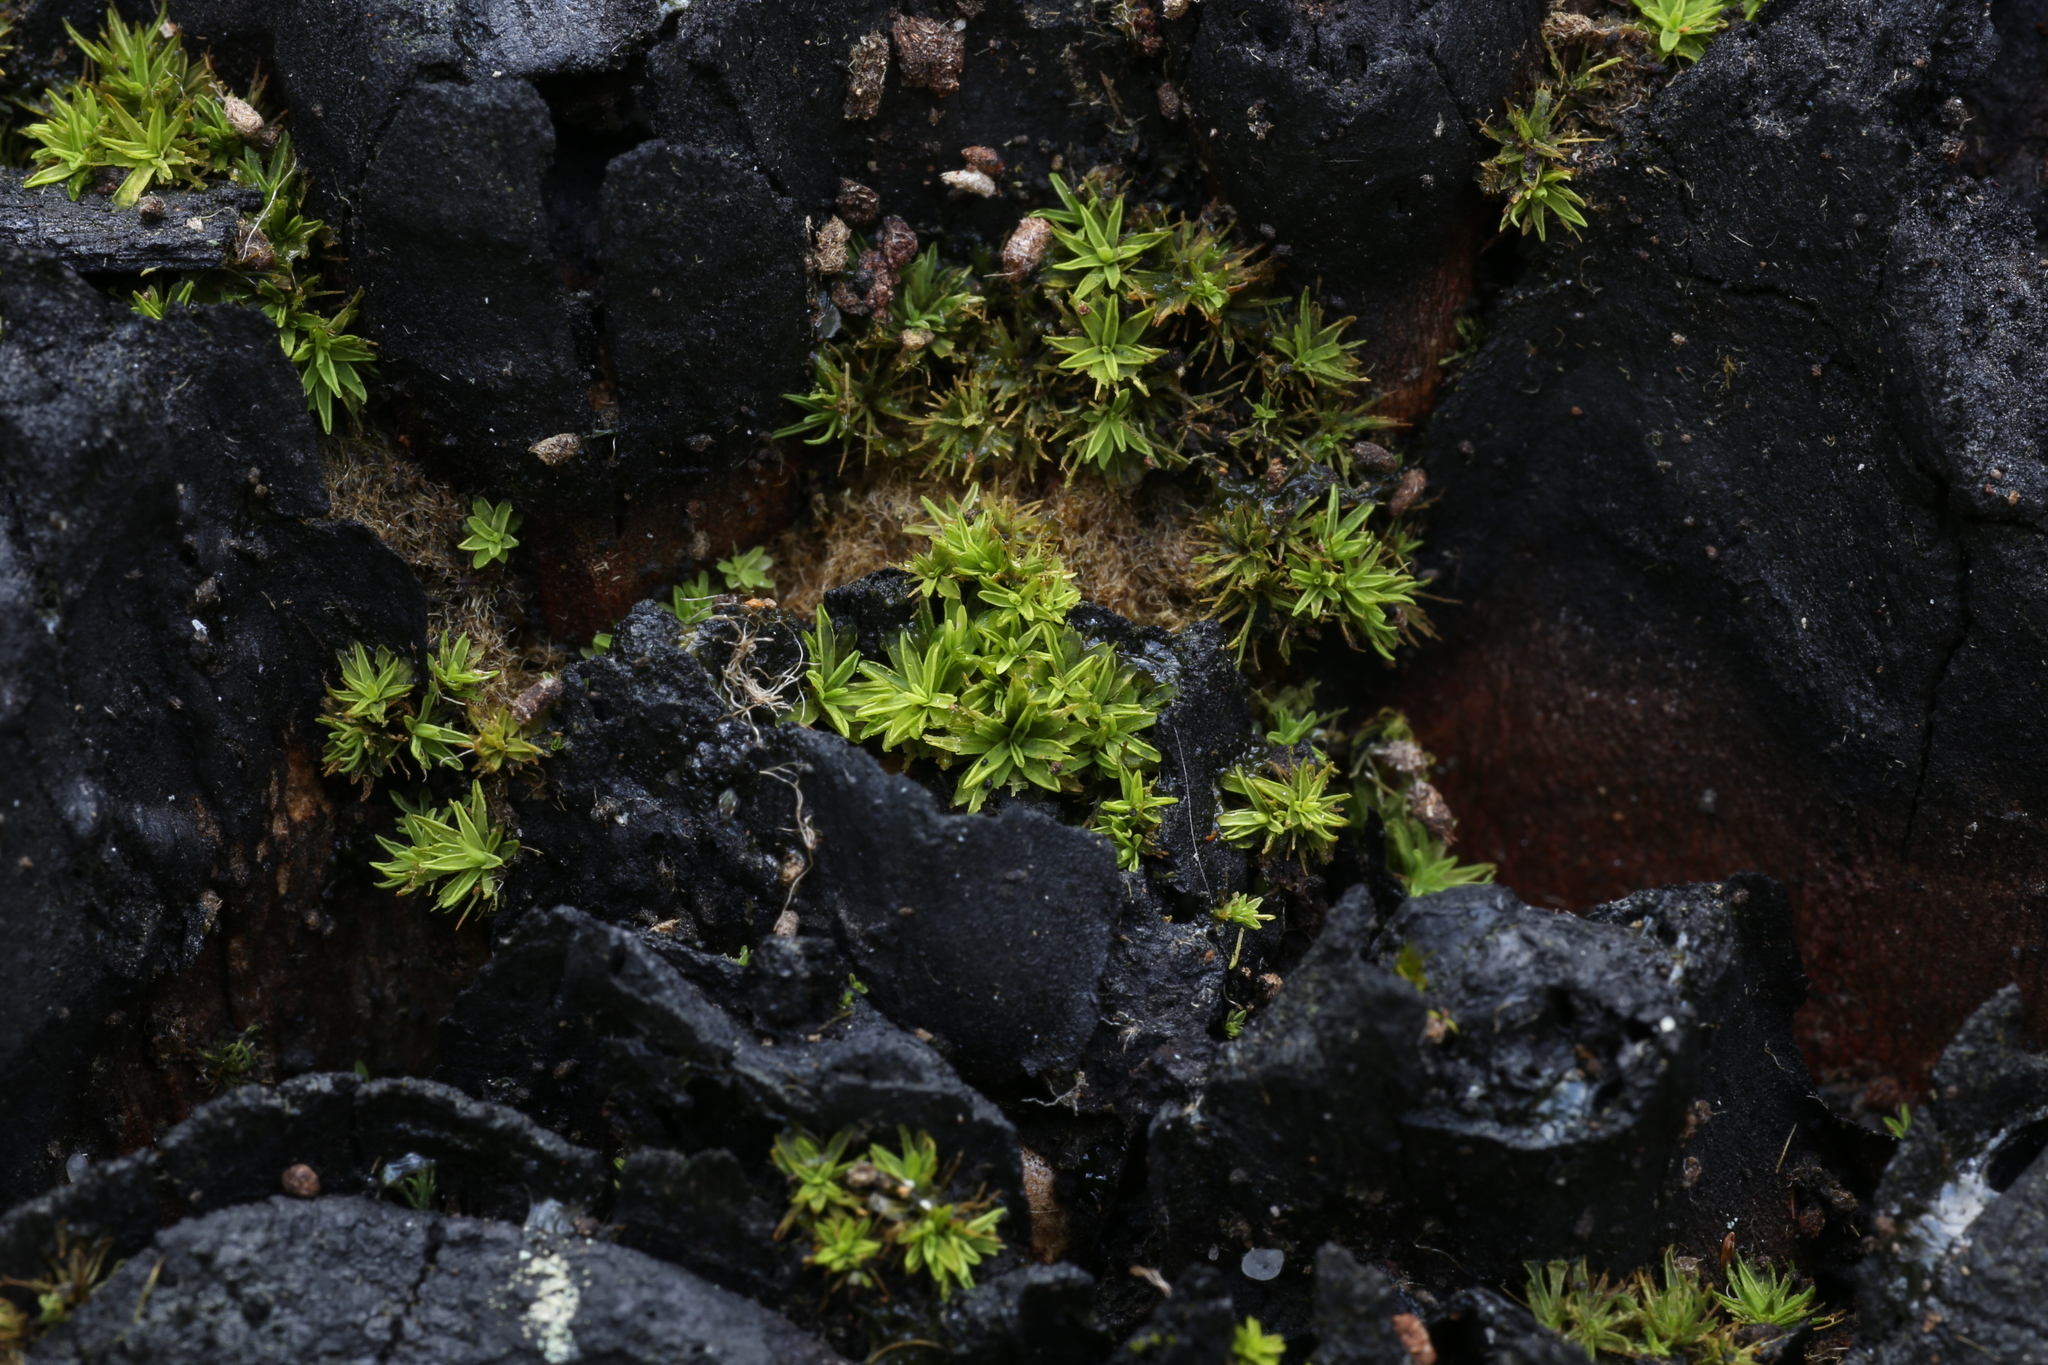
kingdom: Plantae
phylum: Bryophyta
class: Bryopsida
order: Pottiales
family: Pottiaceae
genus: Calymperastrum
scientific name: Calymperastrum latifolium
